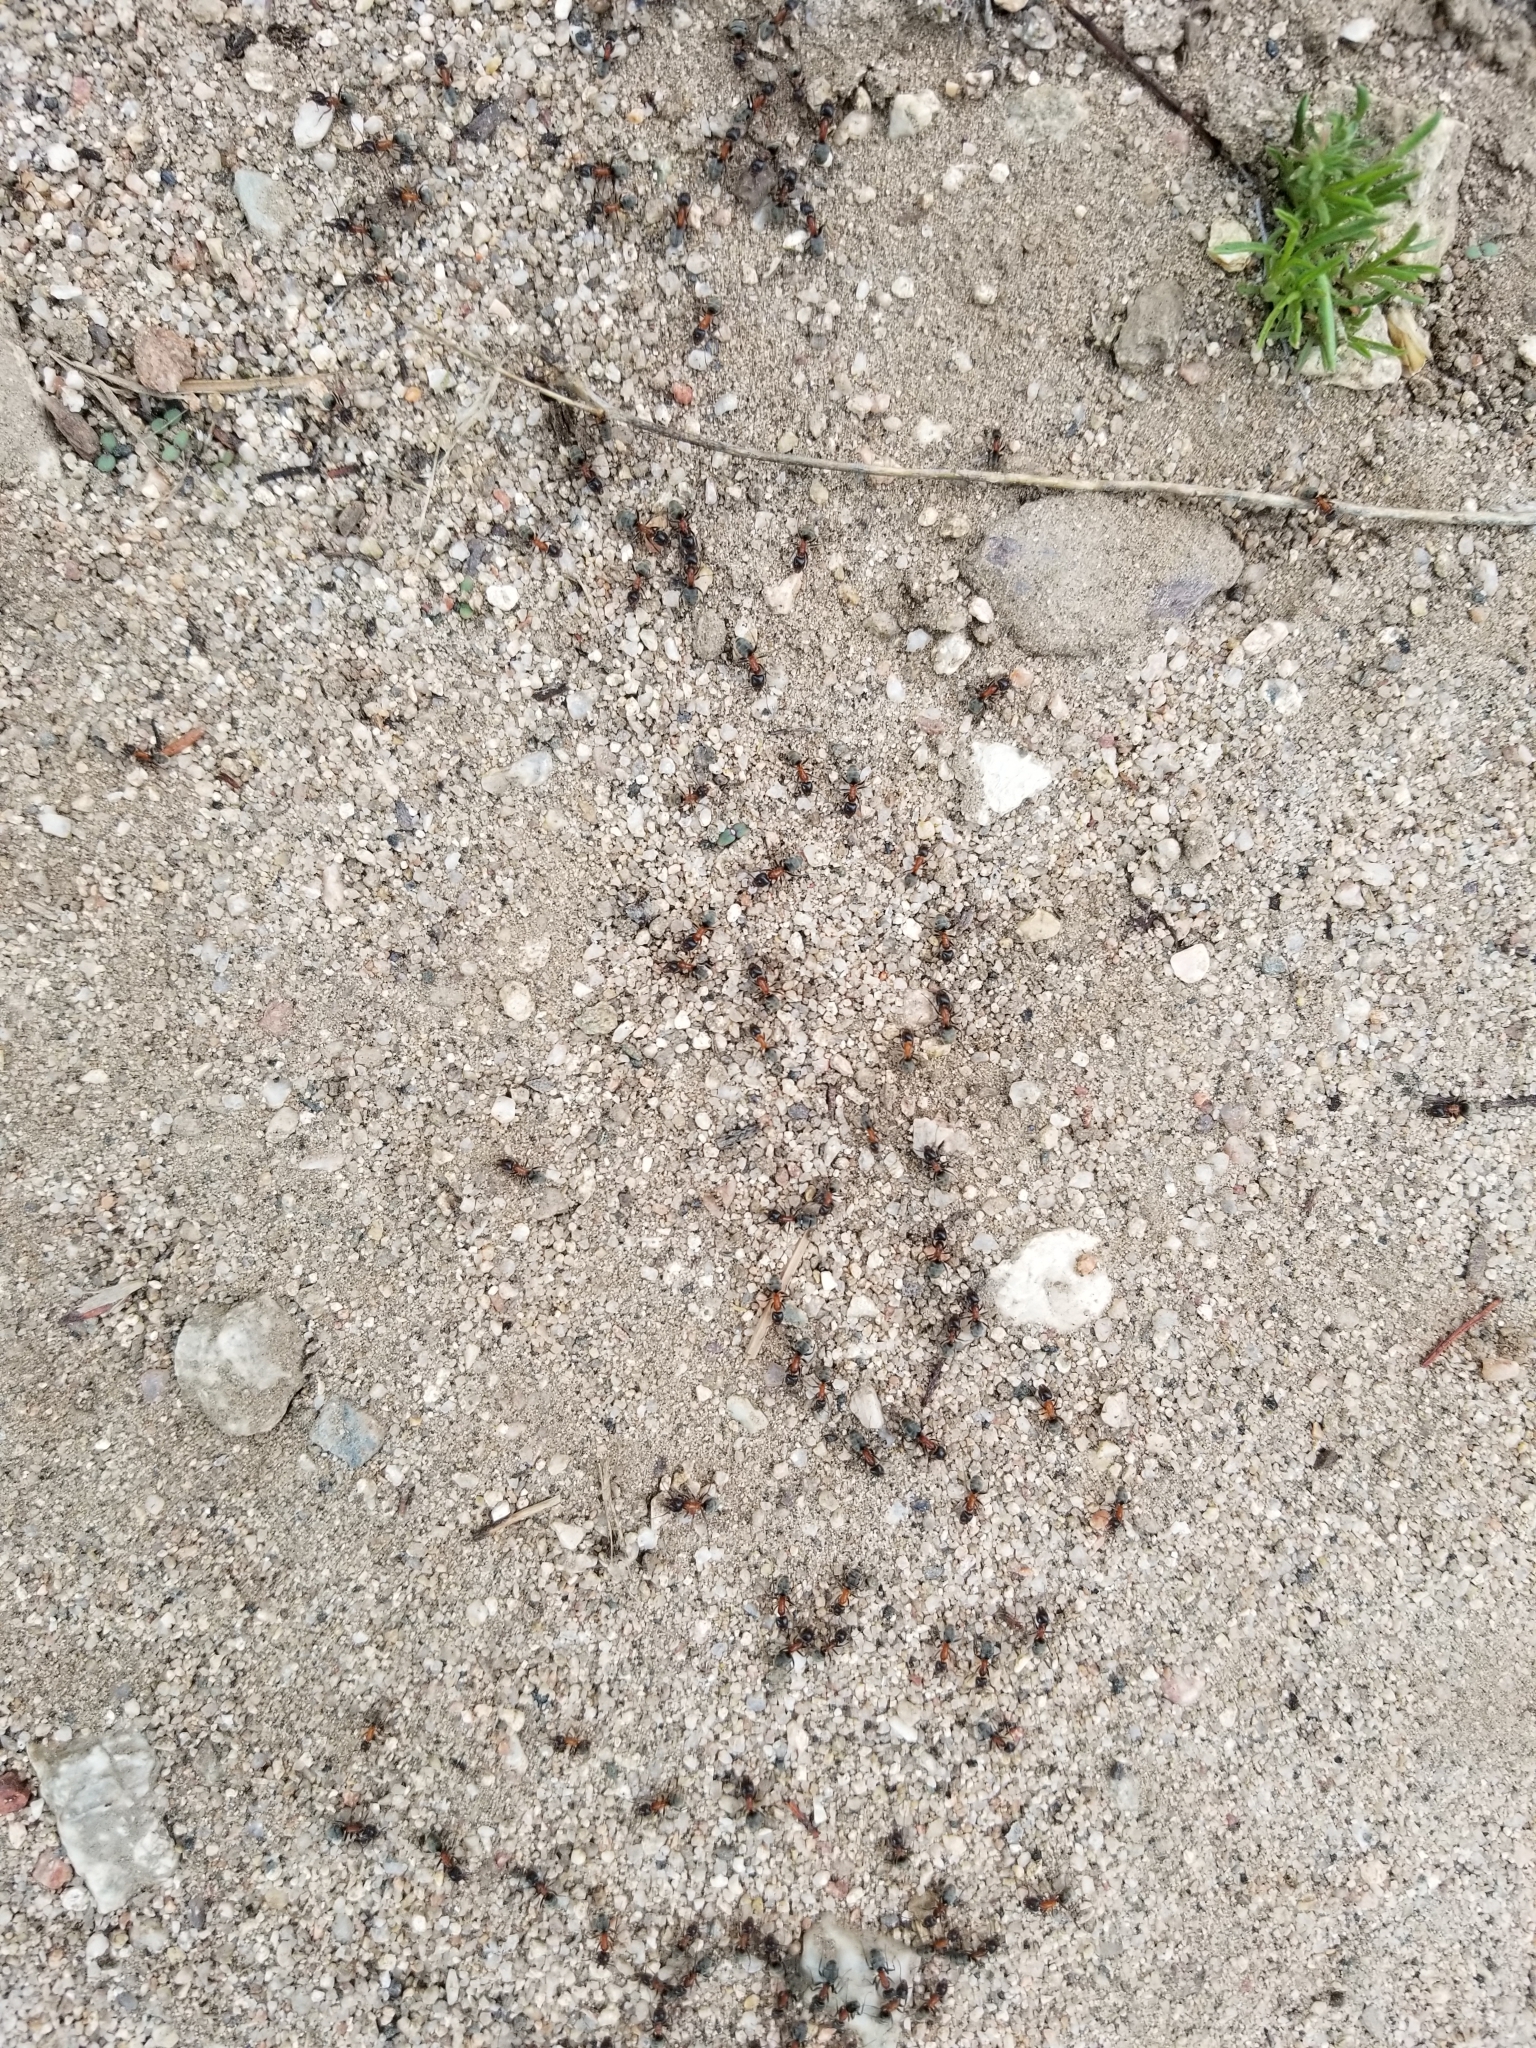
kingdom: Animalia
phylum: Arthropoda
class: Insecta
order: Hymenoptera
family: Formicidae
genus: Liometopum
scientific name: Liometopum occidentale
